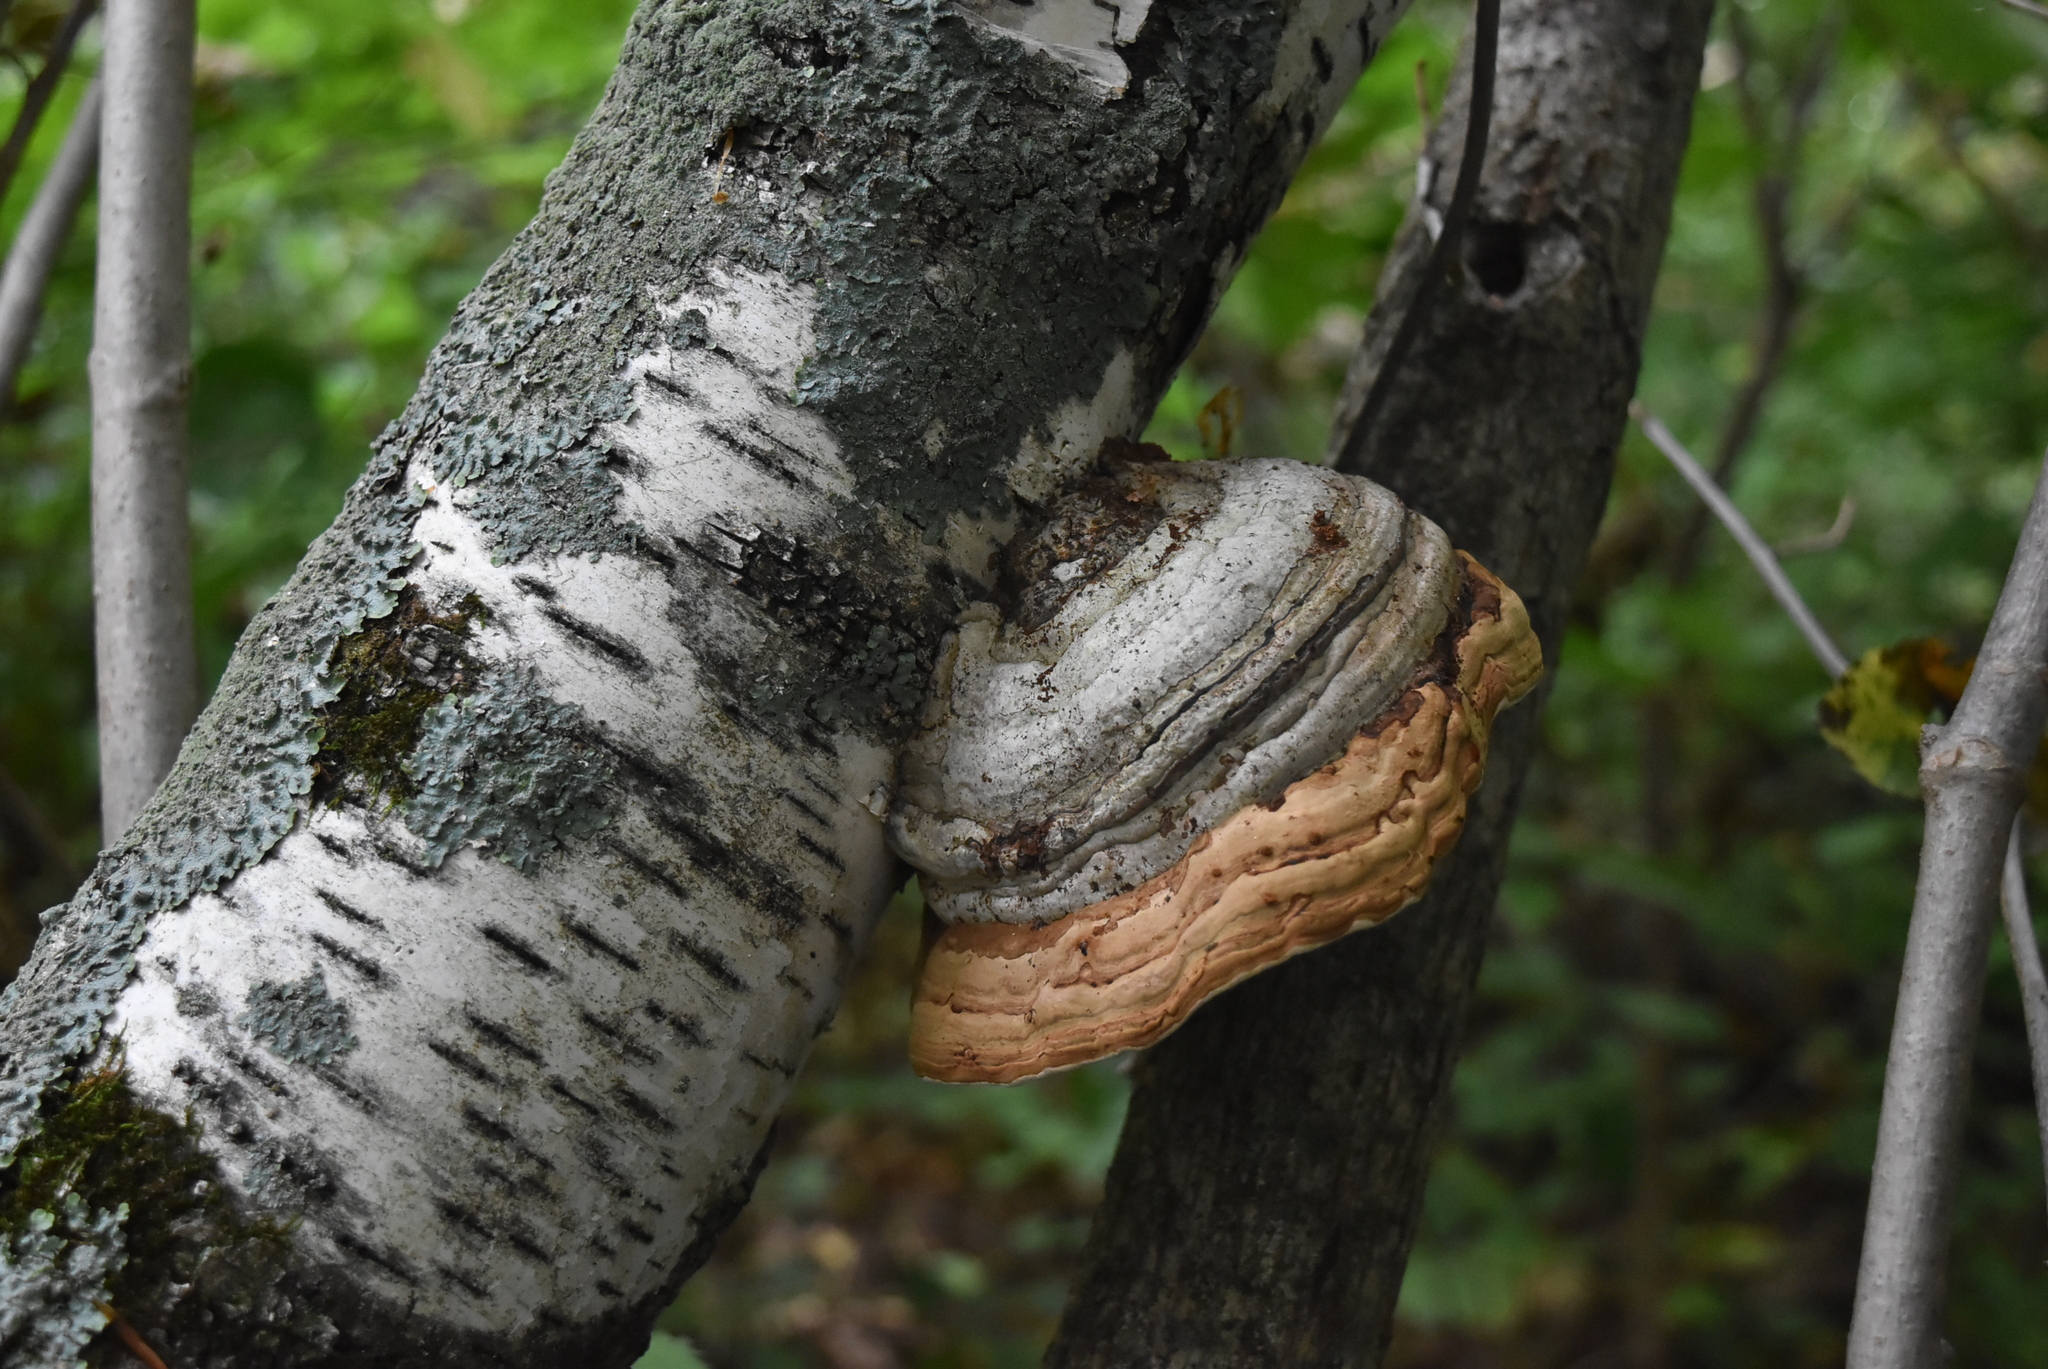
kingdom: Fungi
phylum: Basidiomycota
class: Agaricomycetes
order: Polyporales
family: Polyporaceae
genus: Fomes
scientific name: Fomes fomentarius
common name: Hoof fungus
